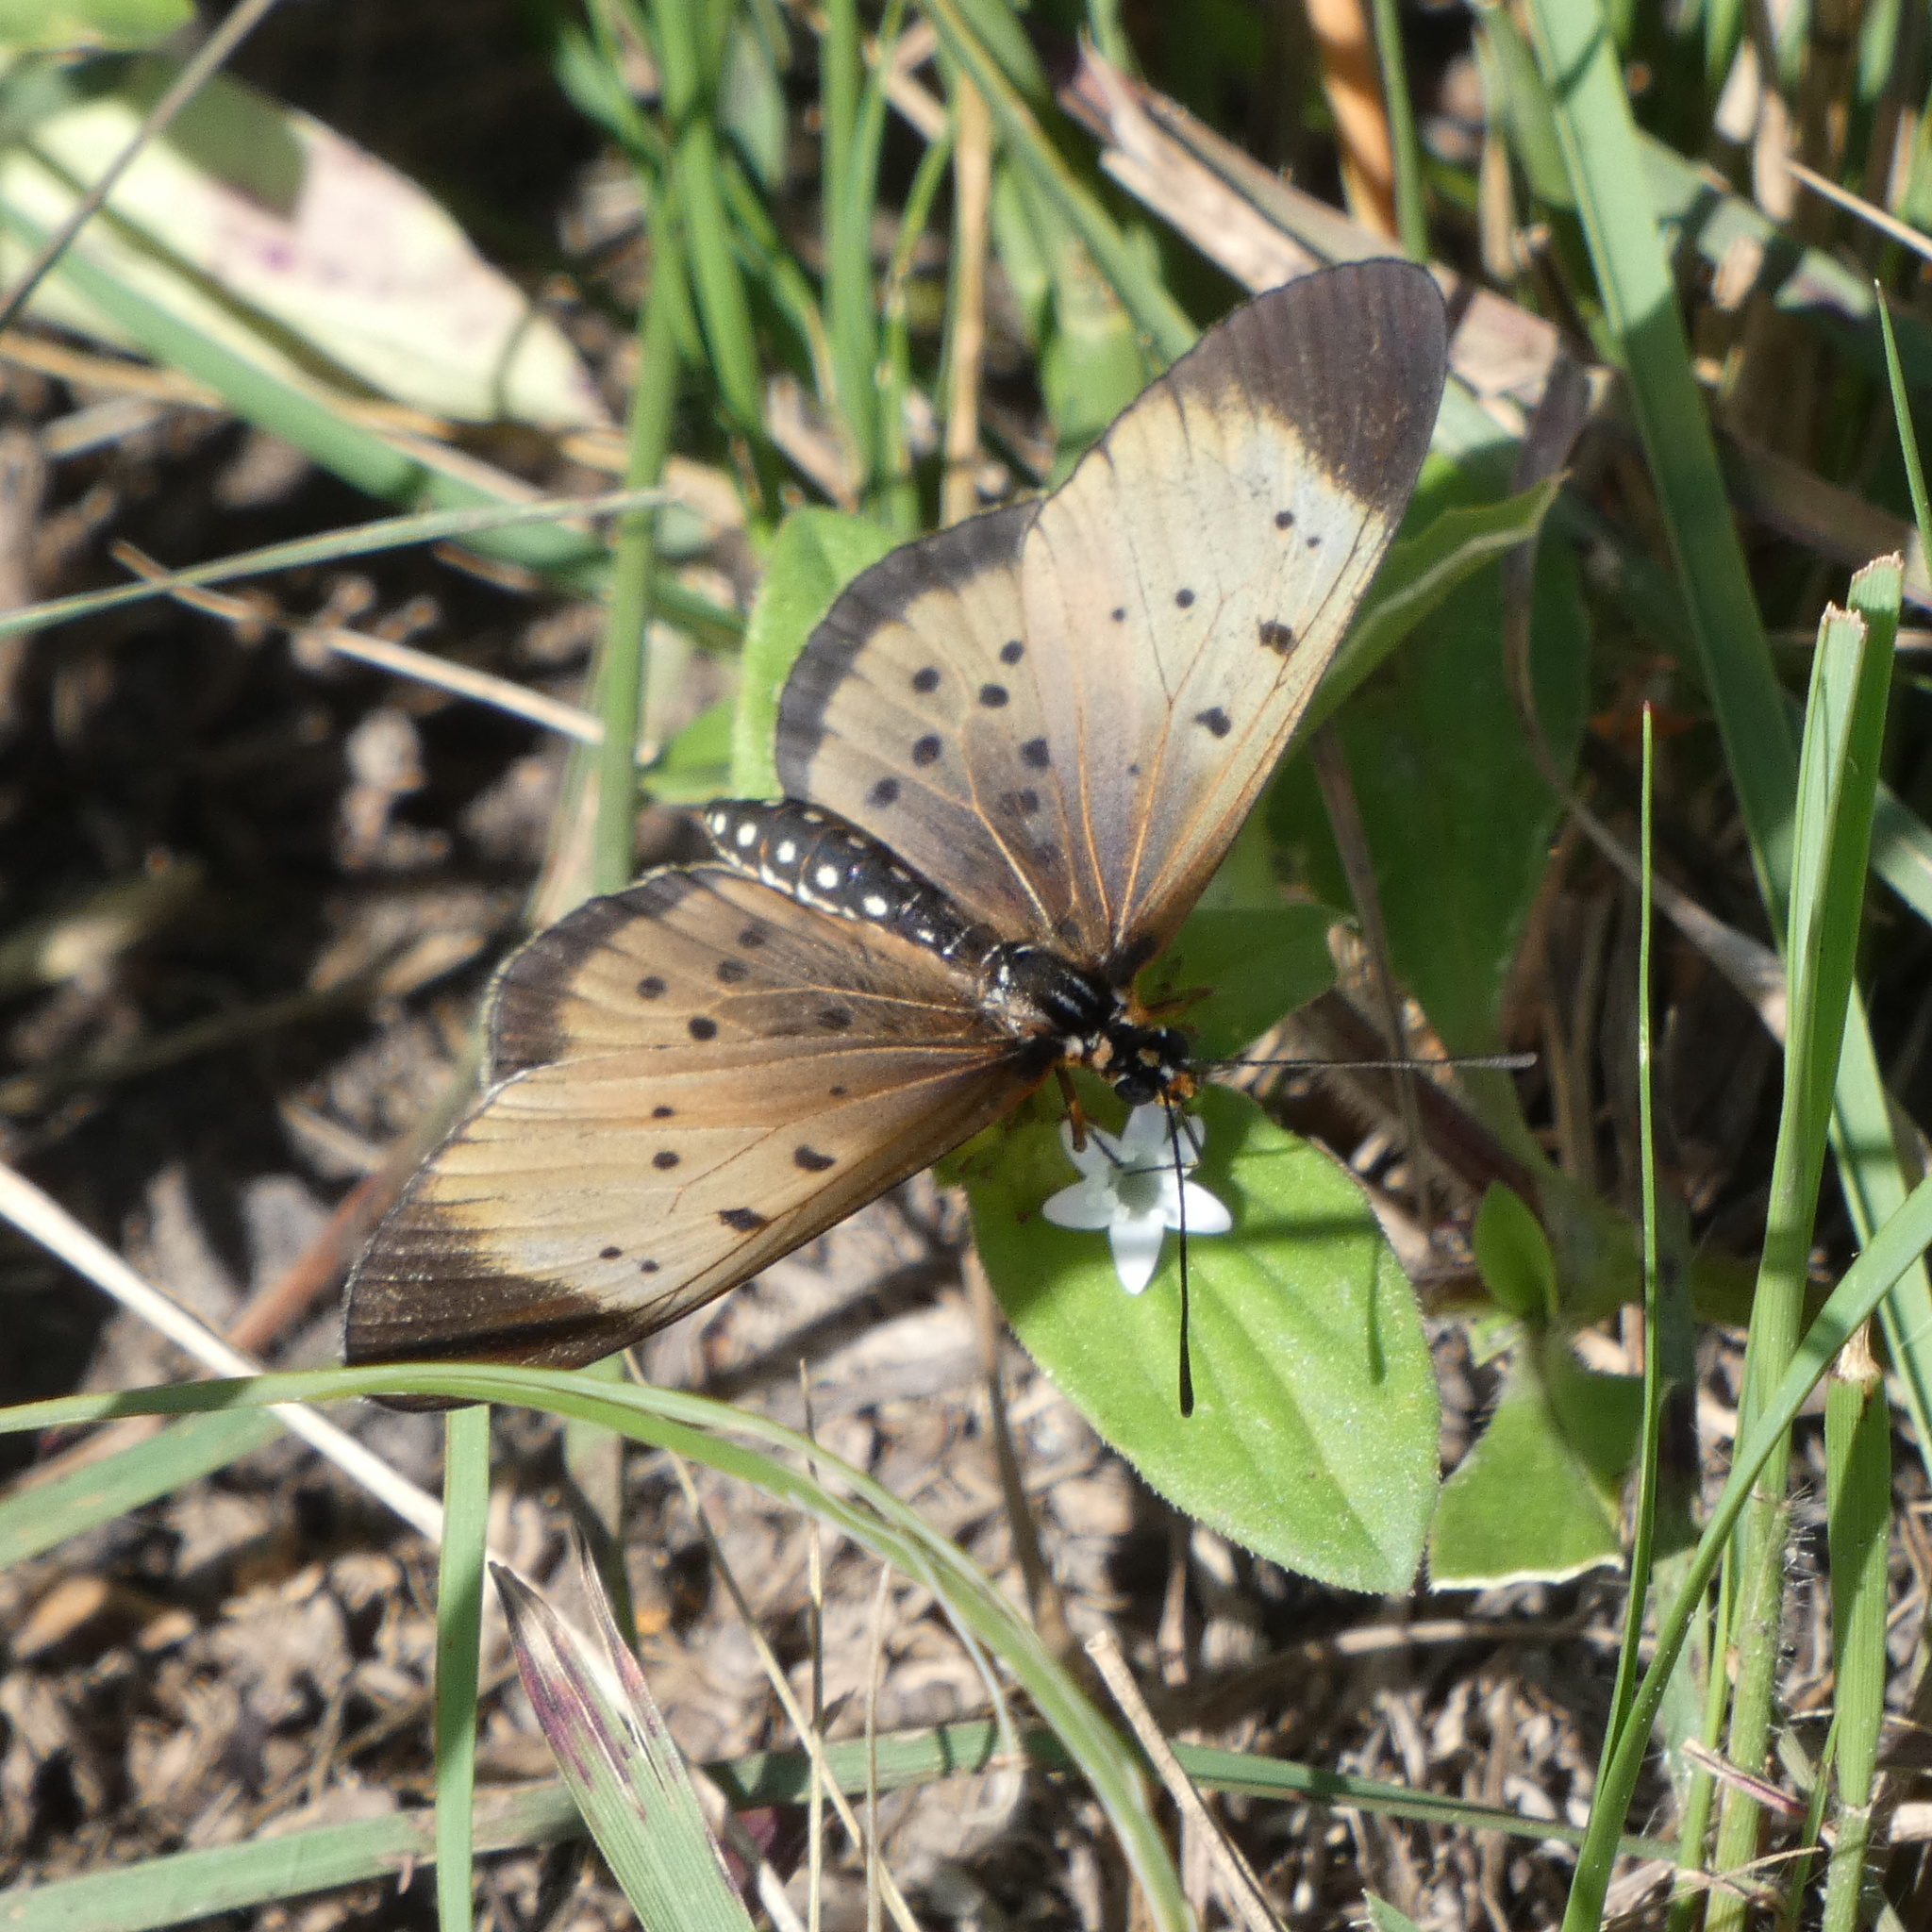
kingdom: Animalia
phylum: Arthropoda
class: Insecta
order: Lepidoptera
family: Nymphalidae
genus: Stephenia
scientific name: Stephenia
